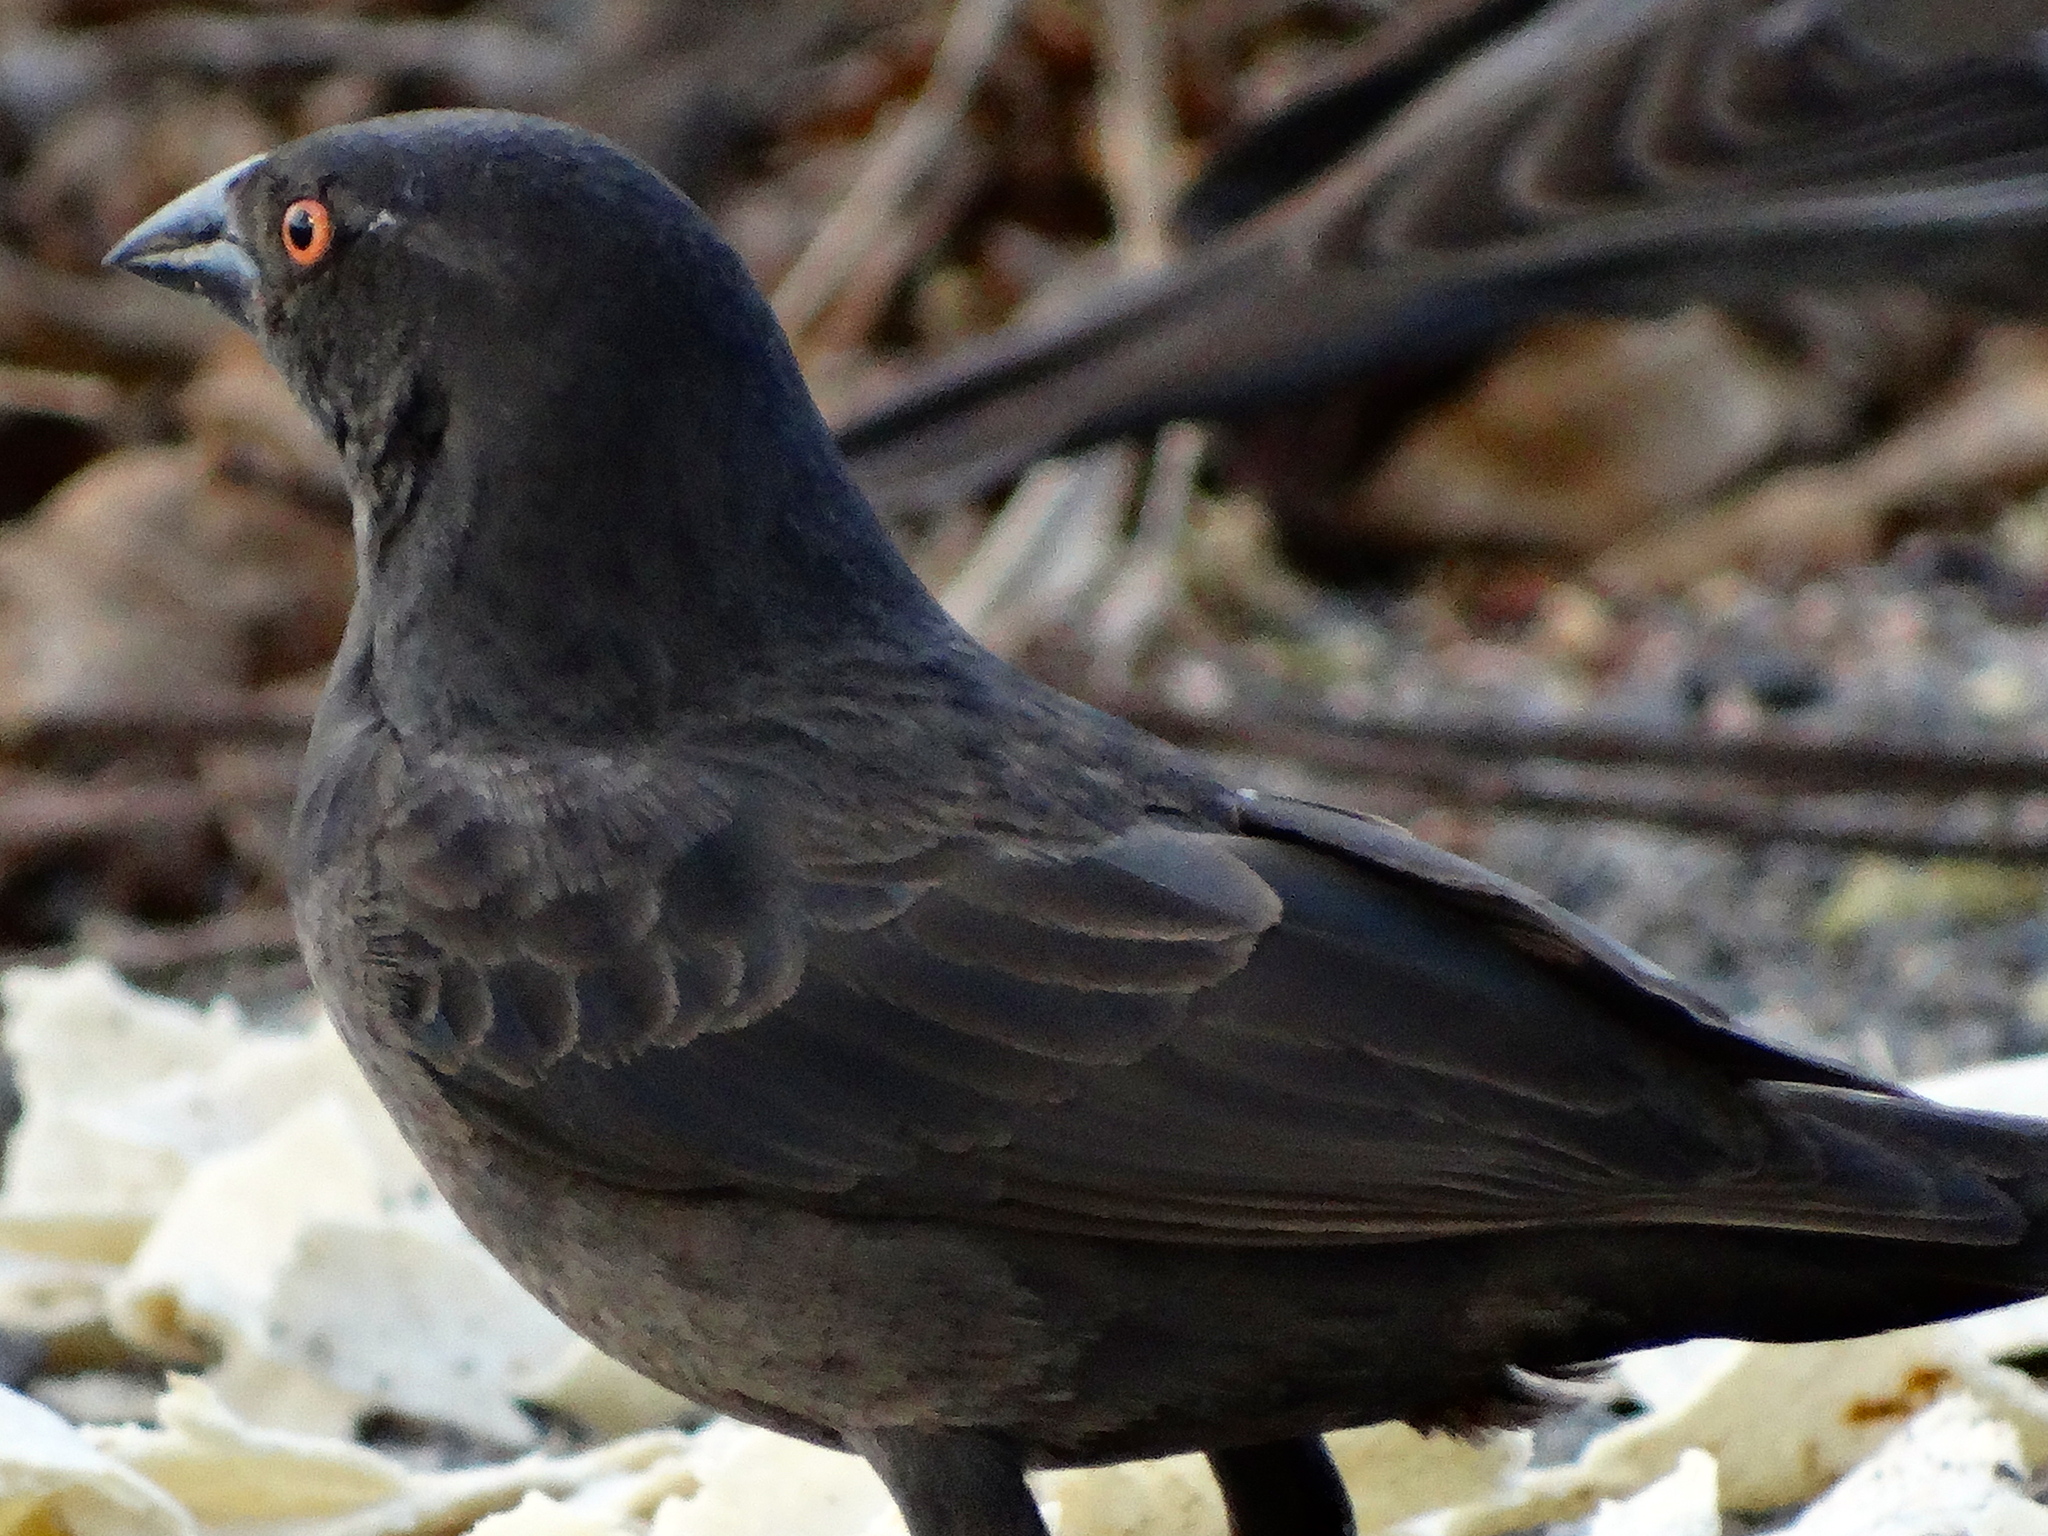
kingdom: Animalia
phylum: Chordata
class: Aves
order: Passeriformes
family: Icteridae
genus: Molothrus
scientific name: Molothrus aeneus
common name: Bronzed cowbird
